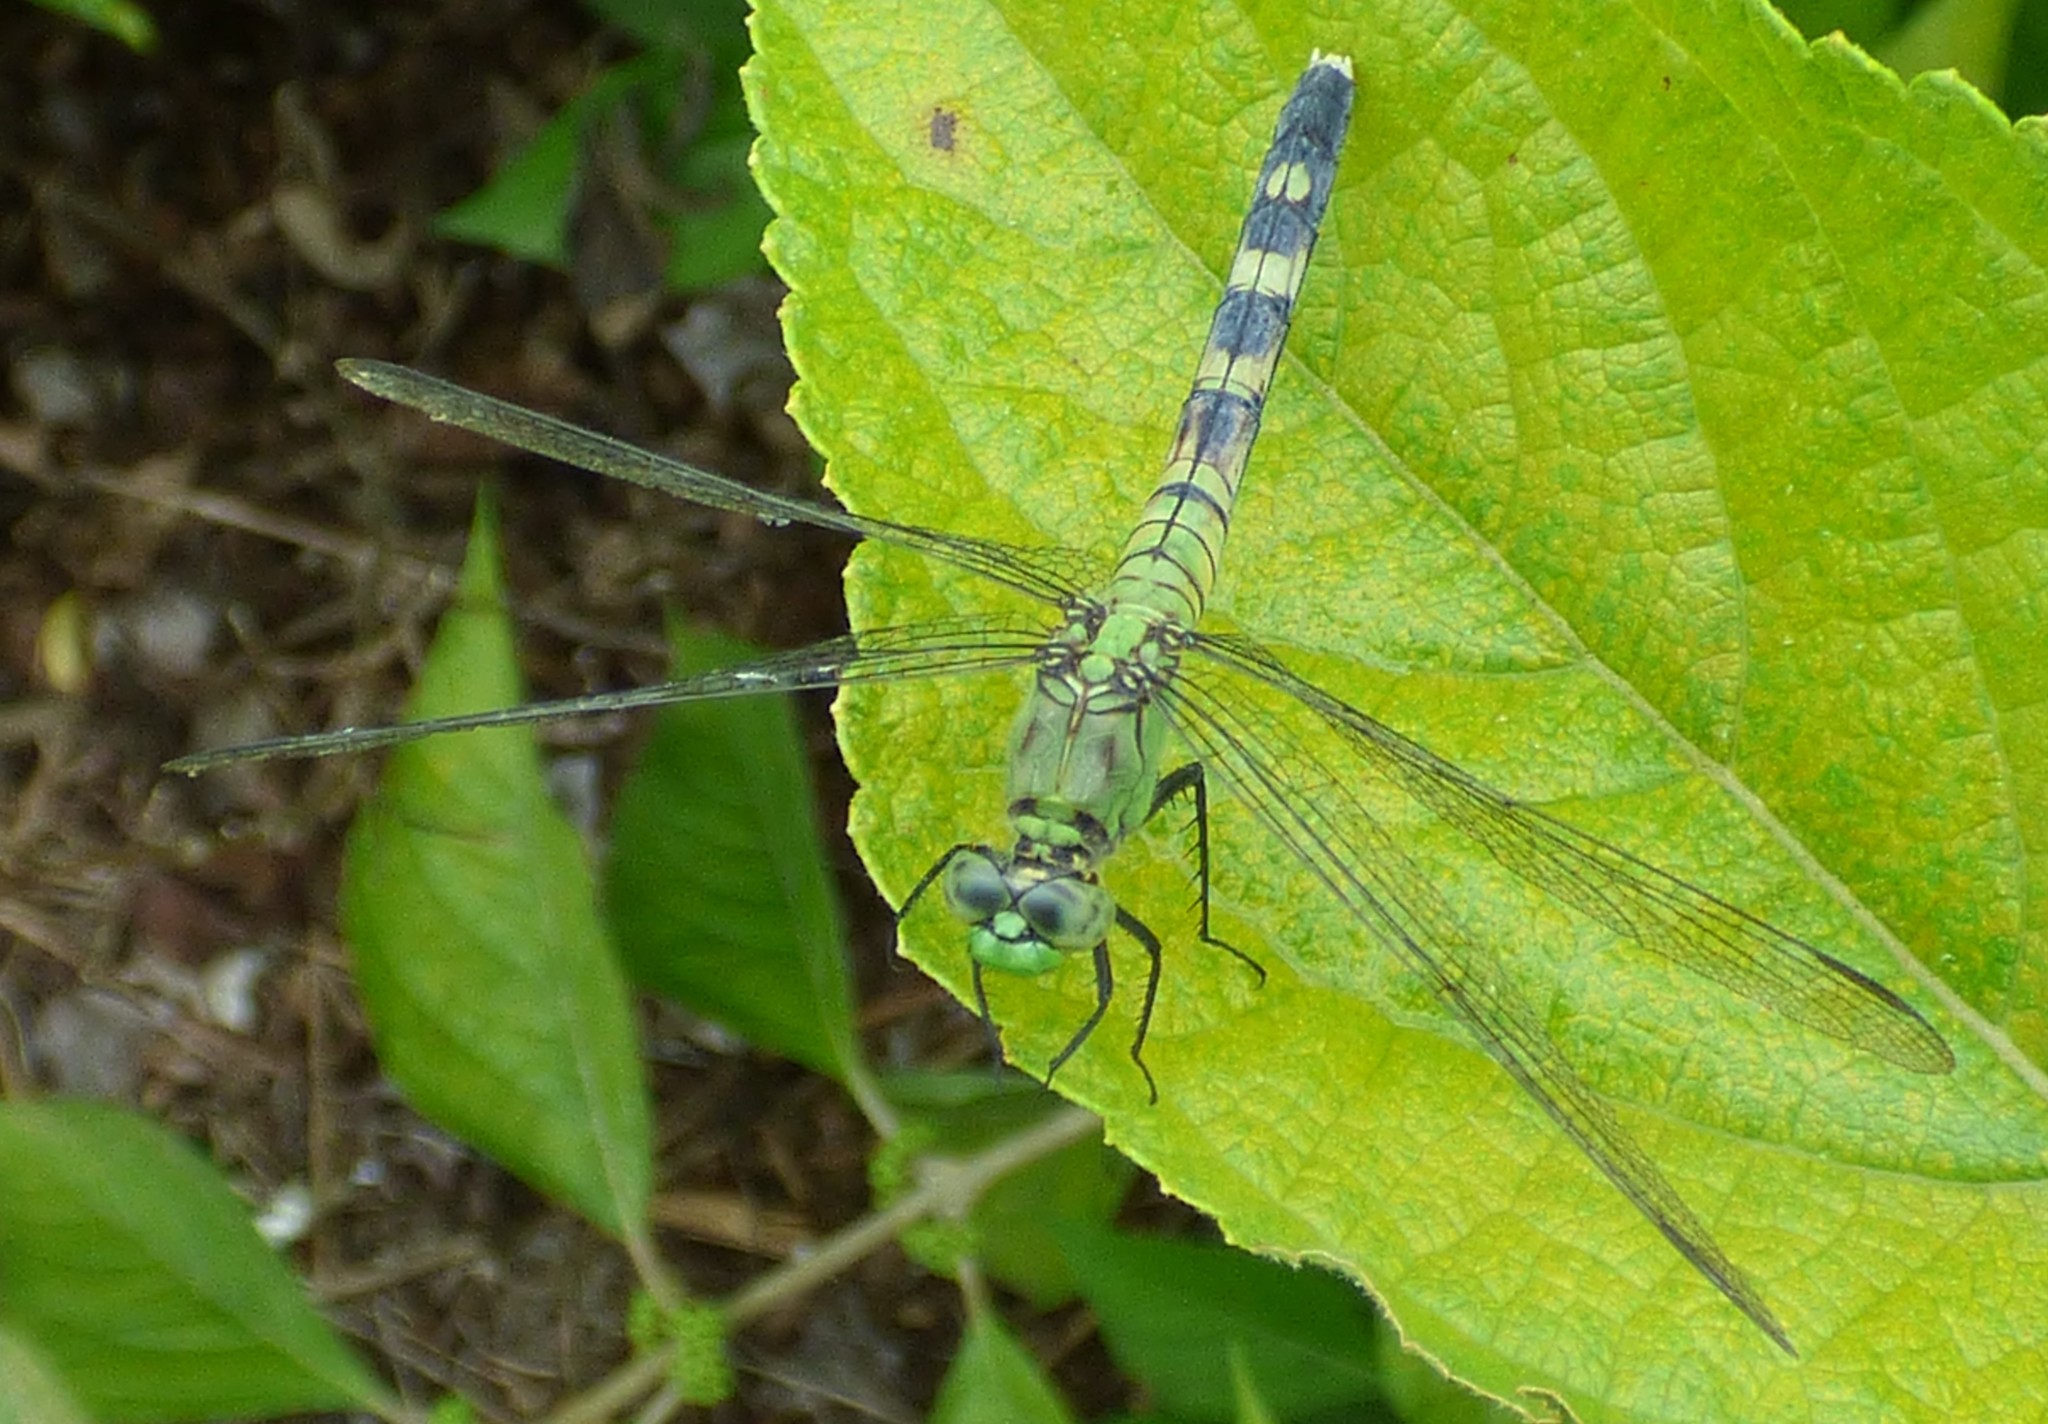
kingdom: Animalia
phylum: Arthropoda
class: Insecta
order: Odonata
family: Libellulidae
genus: Erythemis
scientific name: Erythemis simplicicollis
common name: Eastern pondhawk
